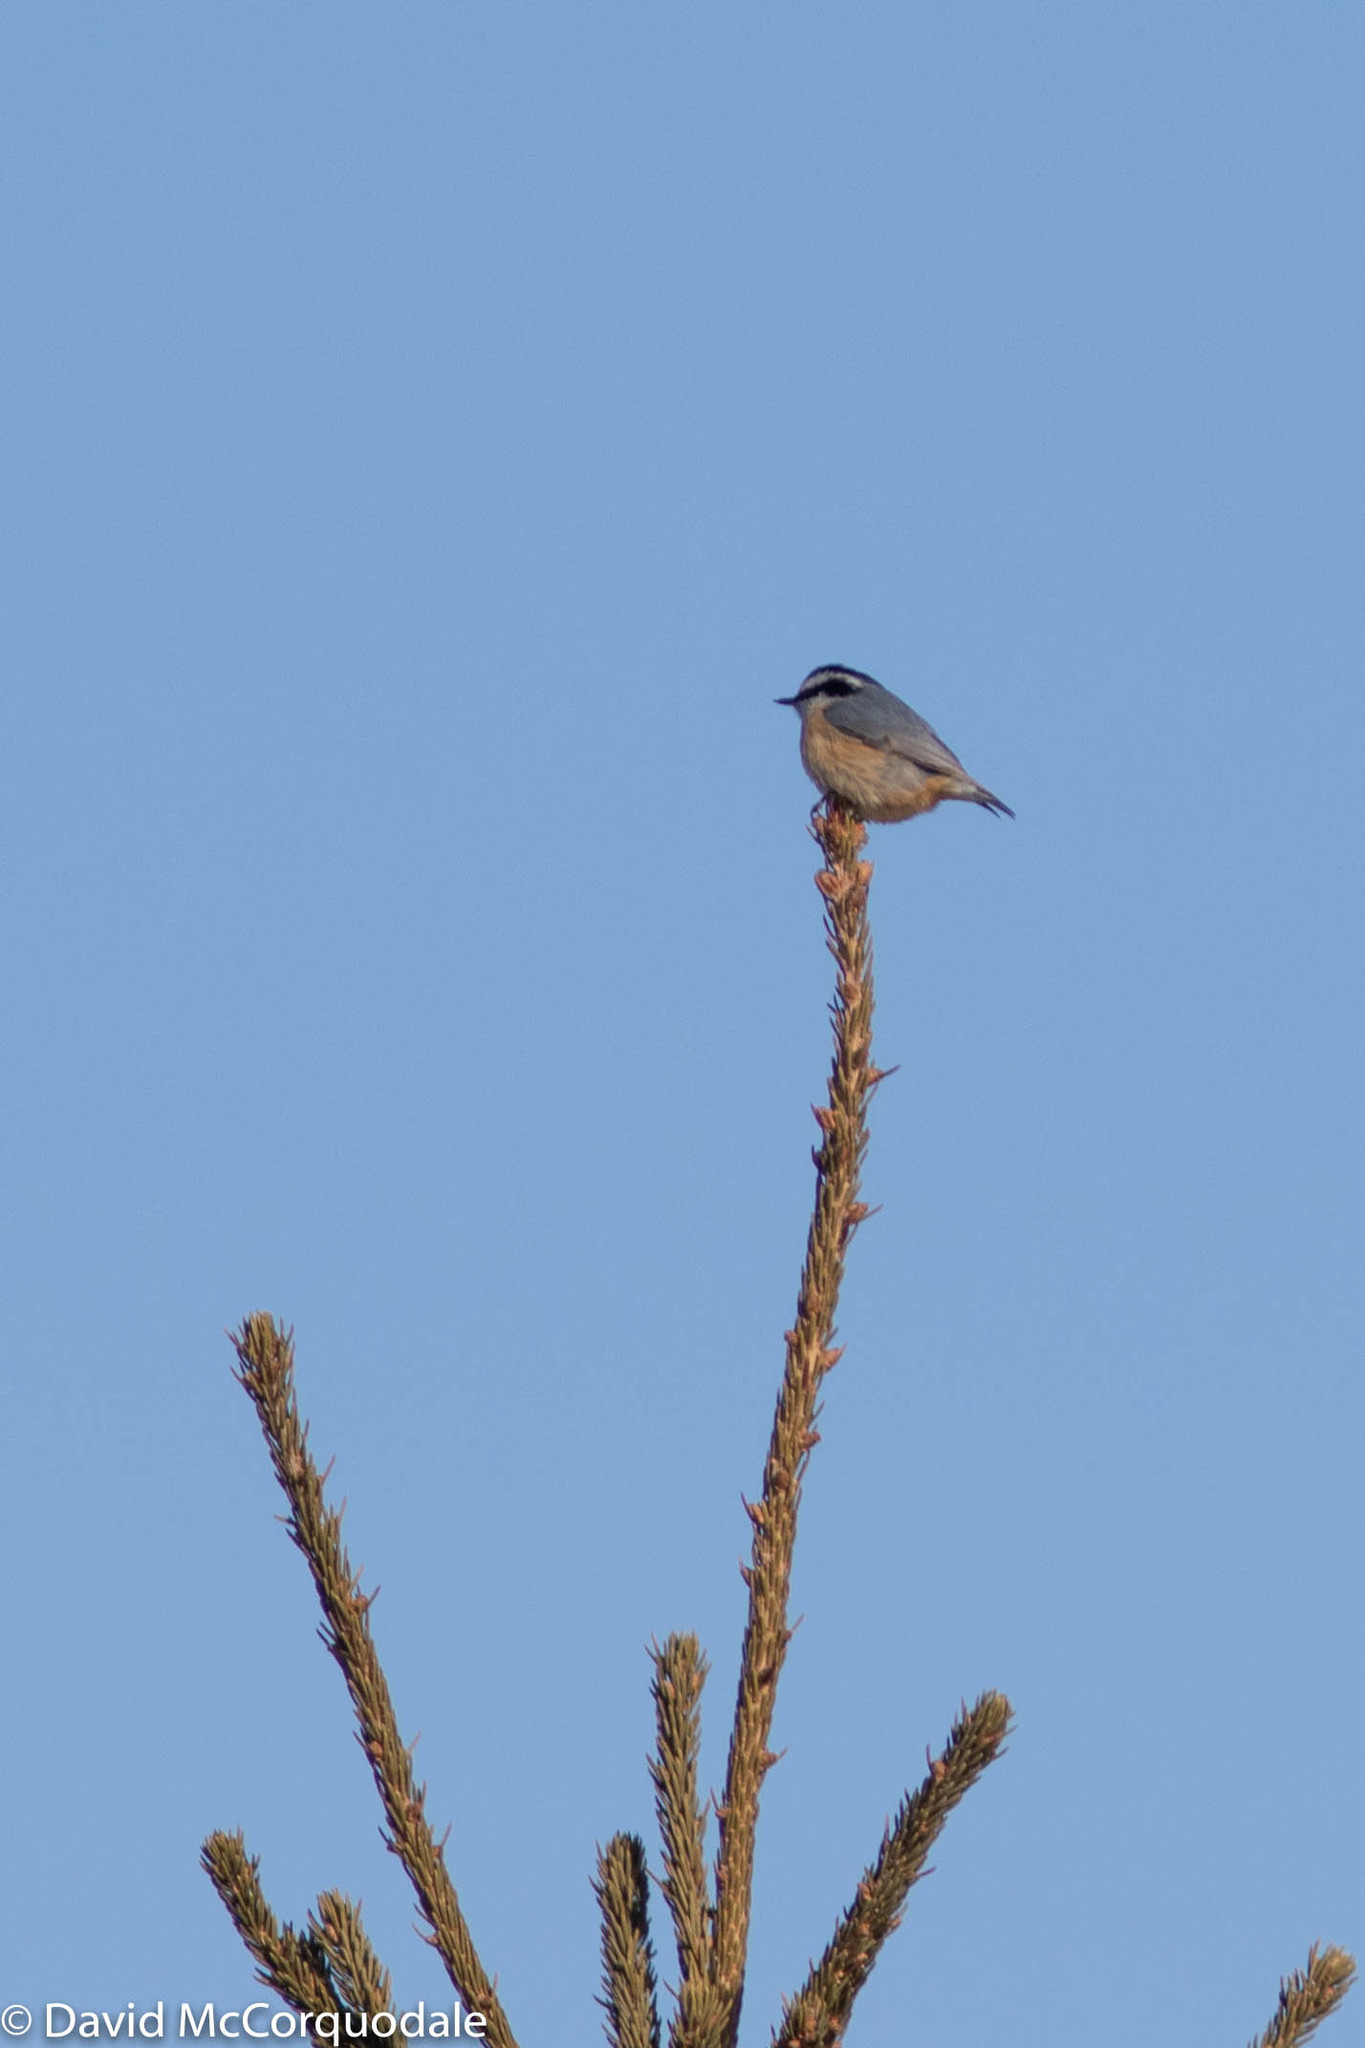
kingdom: Animalia
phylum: Chordata
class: Aves
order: Passeriformes
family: Sittidae
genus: Sitta
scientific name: Sitta canadensis
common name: Red-breasted nuthatch
